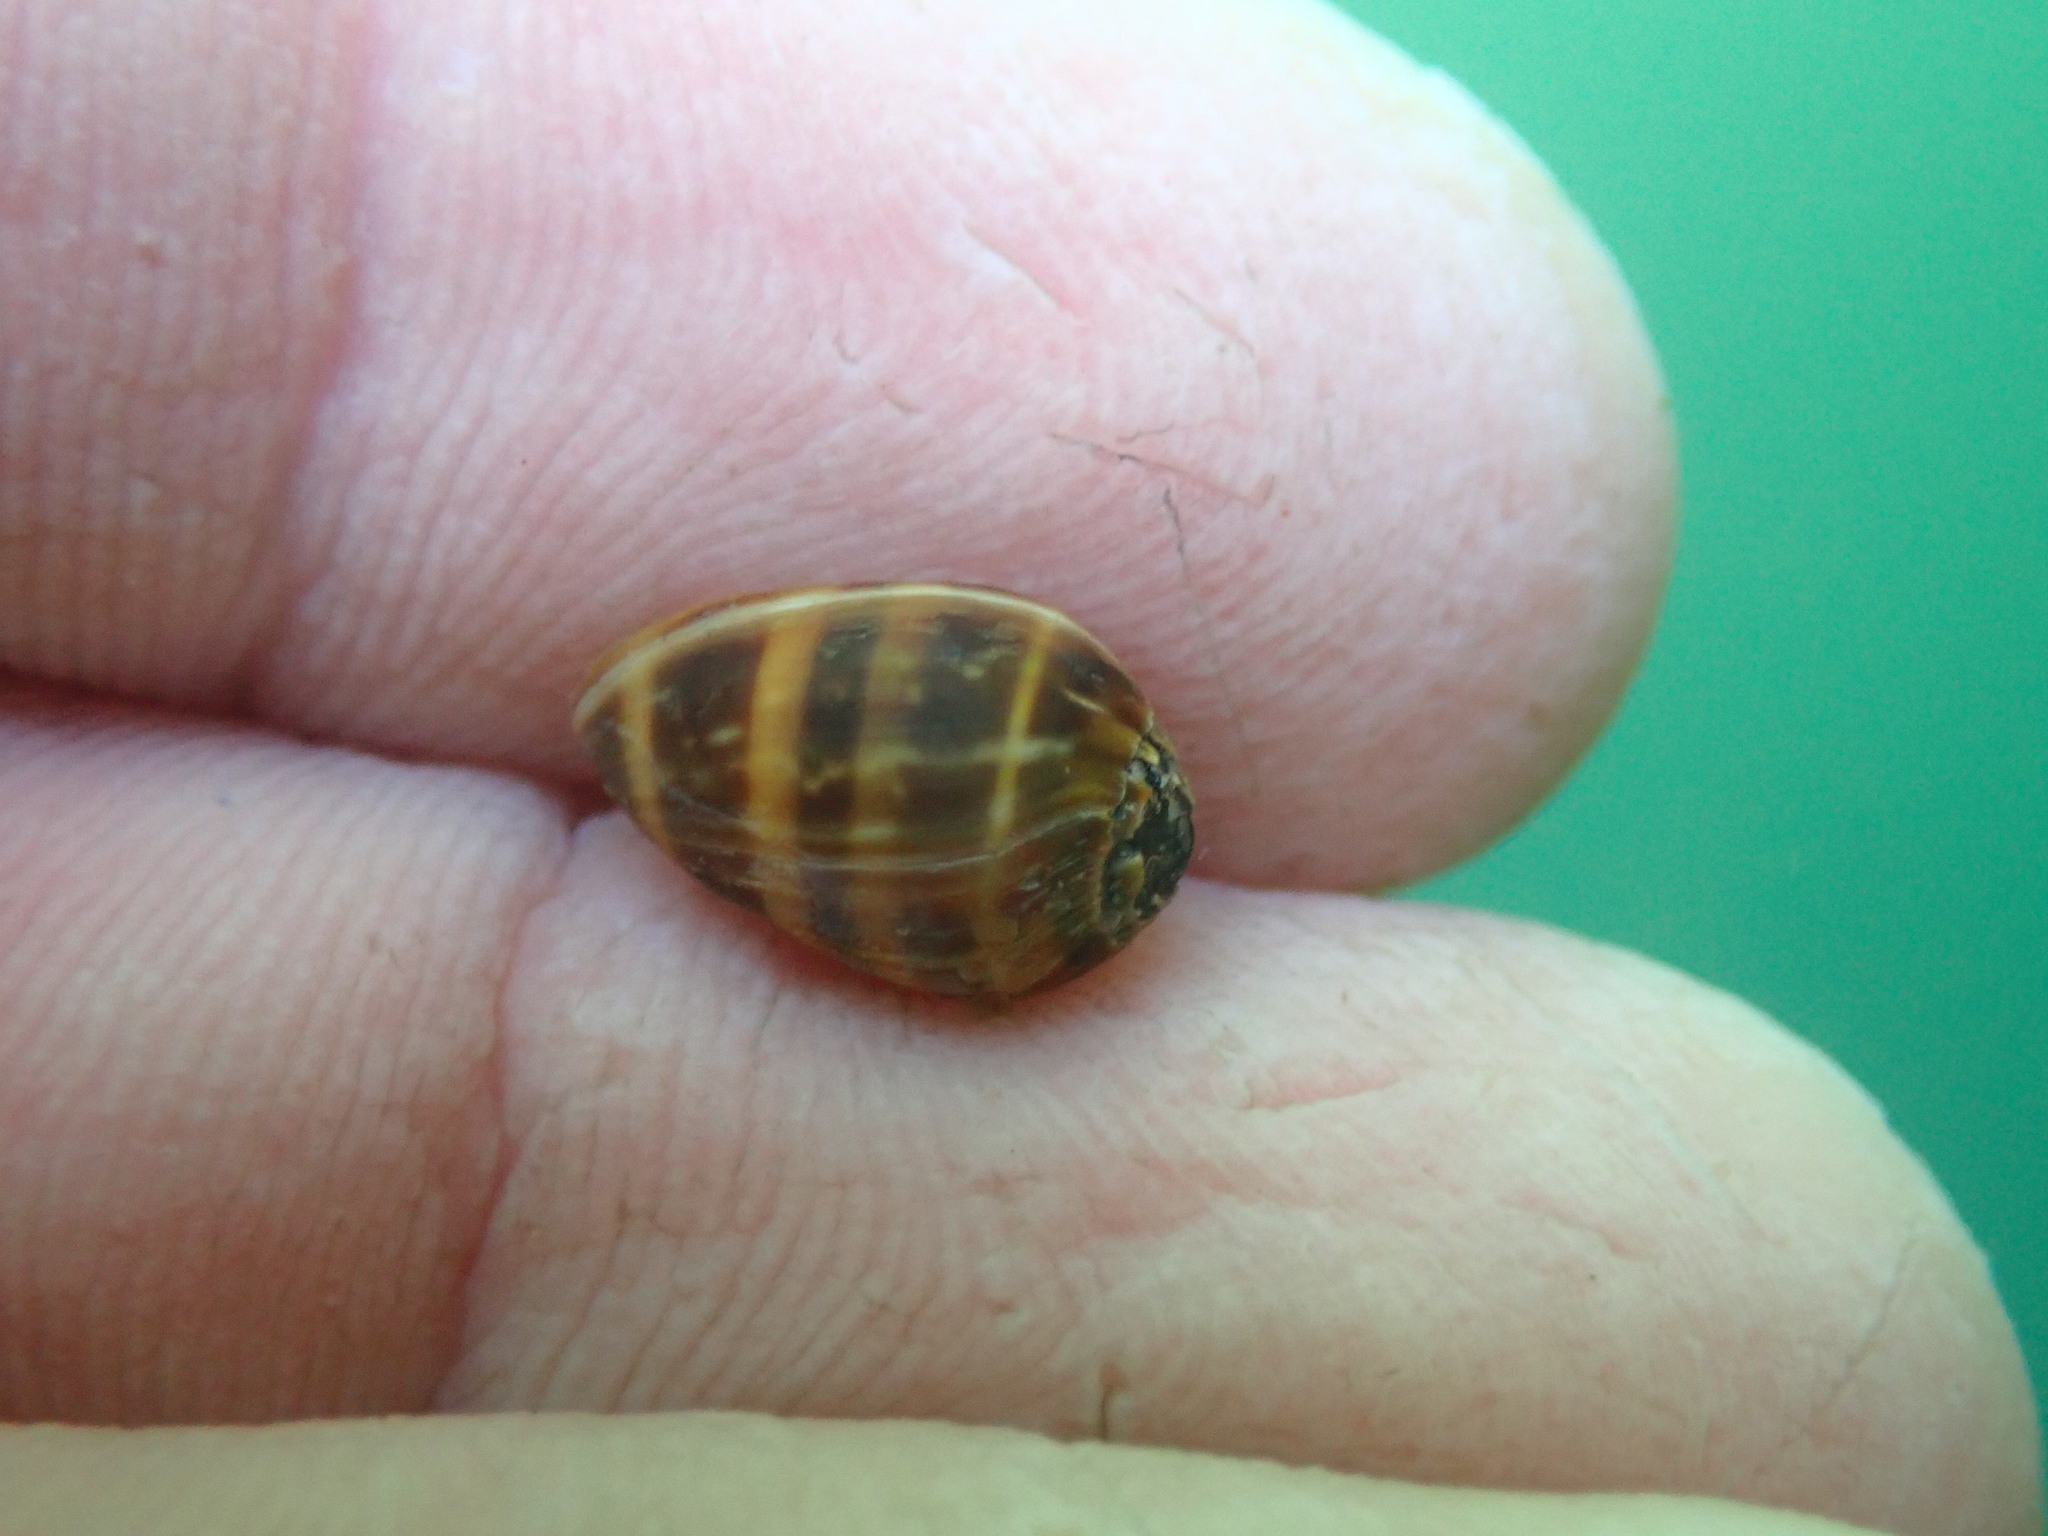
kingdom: Animalia
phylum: Mollusca
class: Gastropoda
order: Ellobiida
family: Ellobiidae
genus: Melampus
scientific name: Melampus olivaceus
